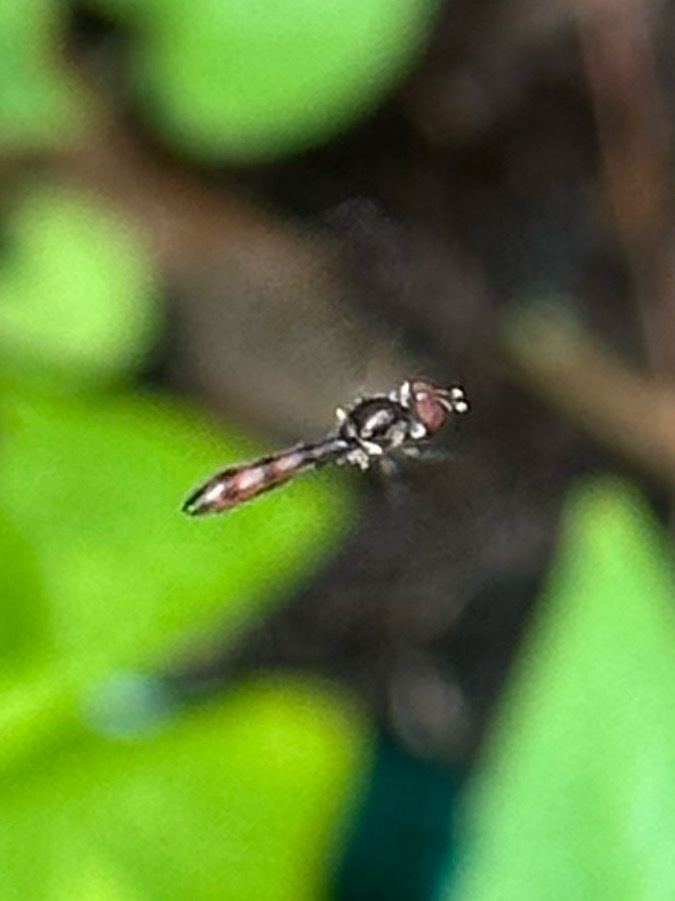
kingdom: Animalia
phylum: Arthropoda
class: Insecta
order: Diptera
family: Syrphidae
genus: Ocyptamus
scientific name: Ocyptamus fuscipennis
